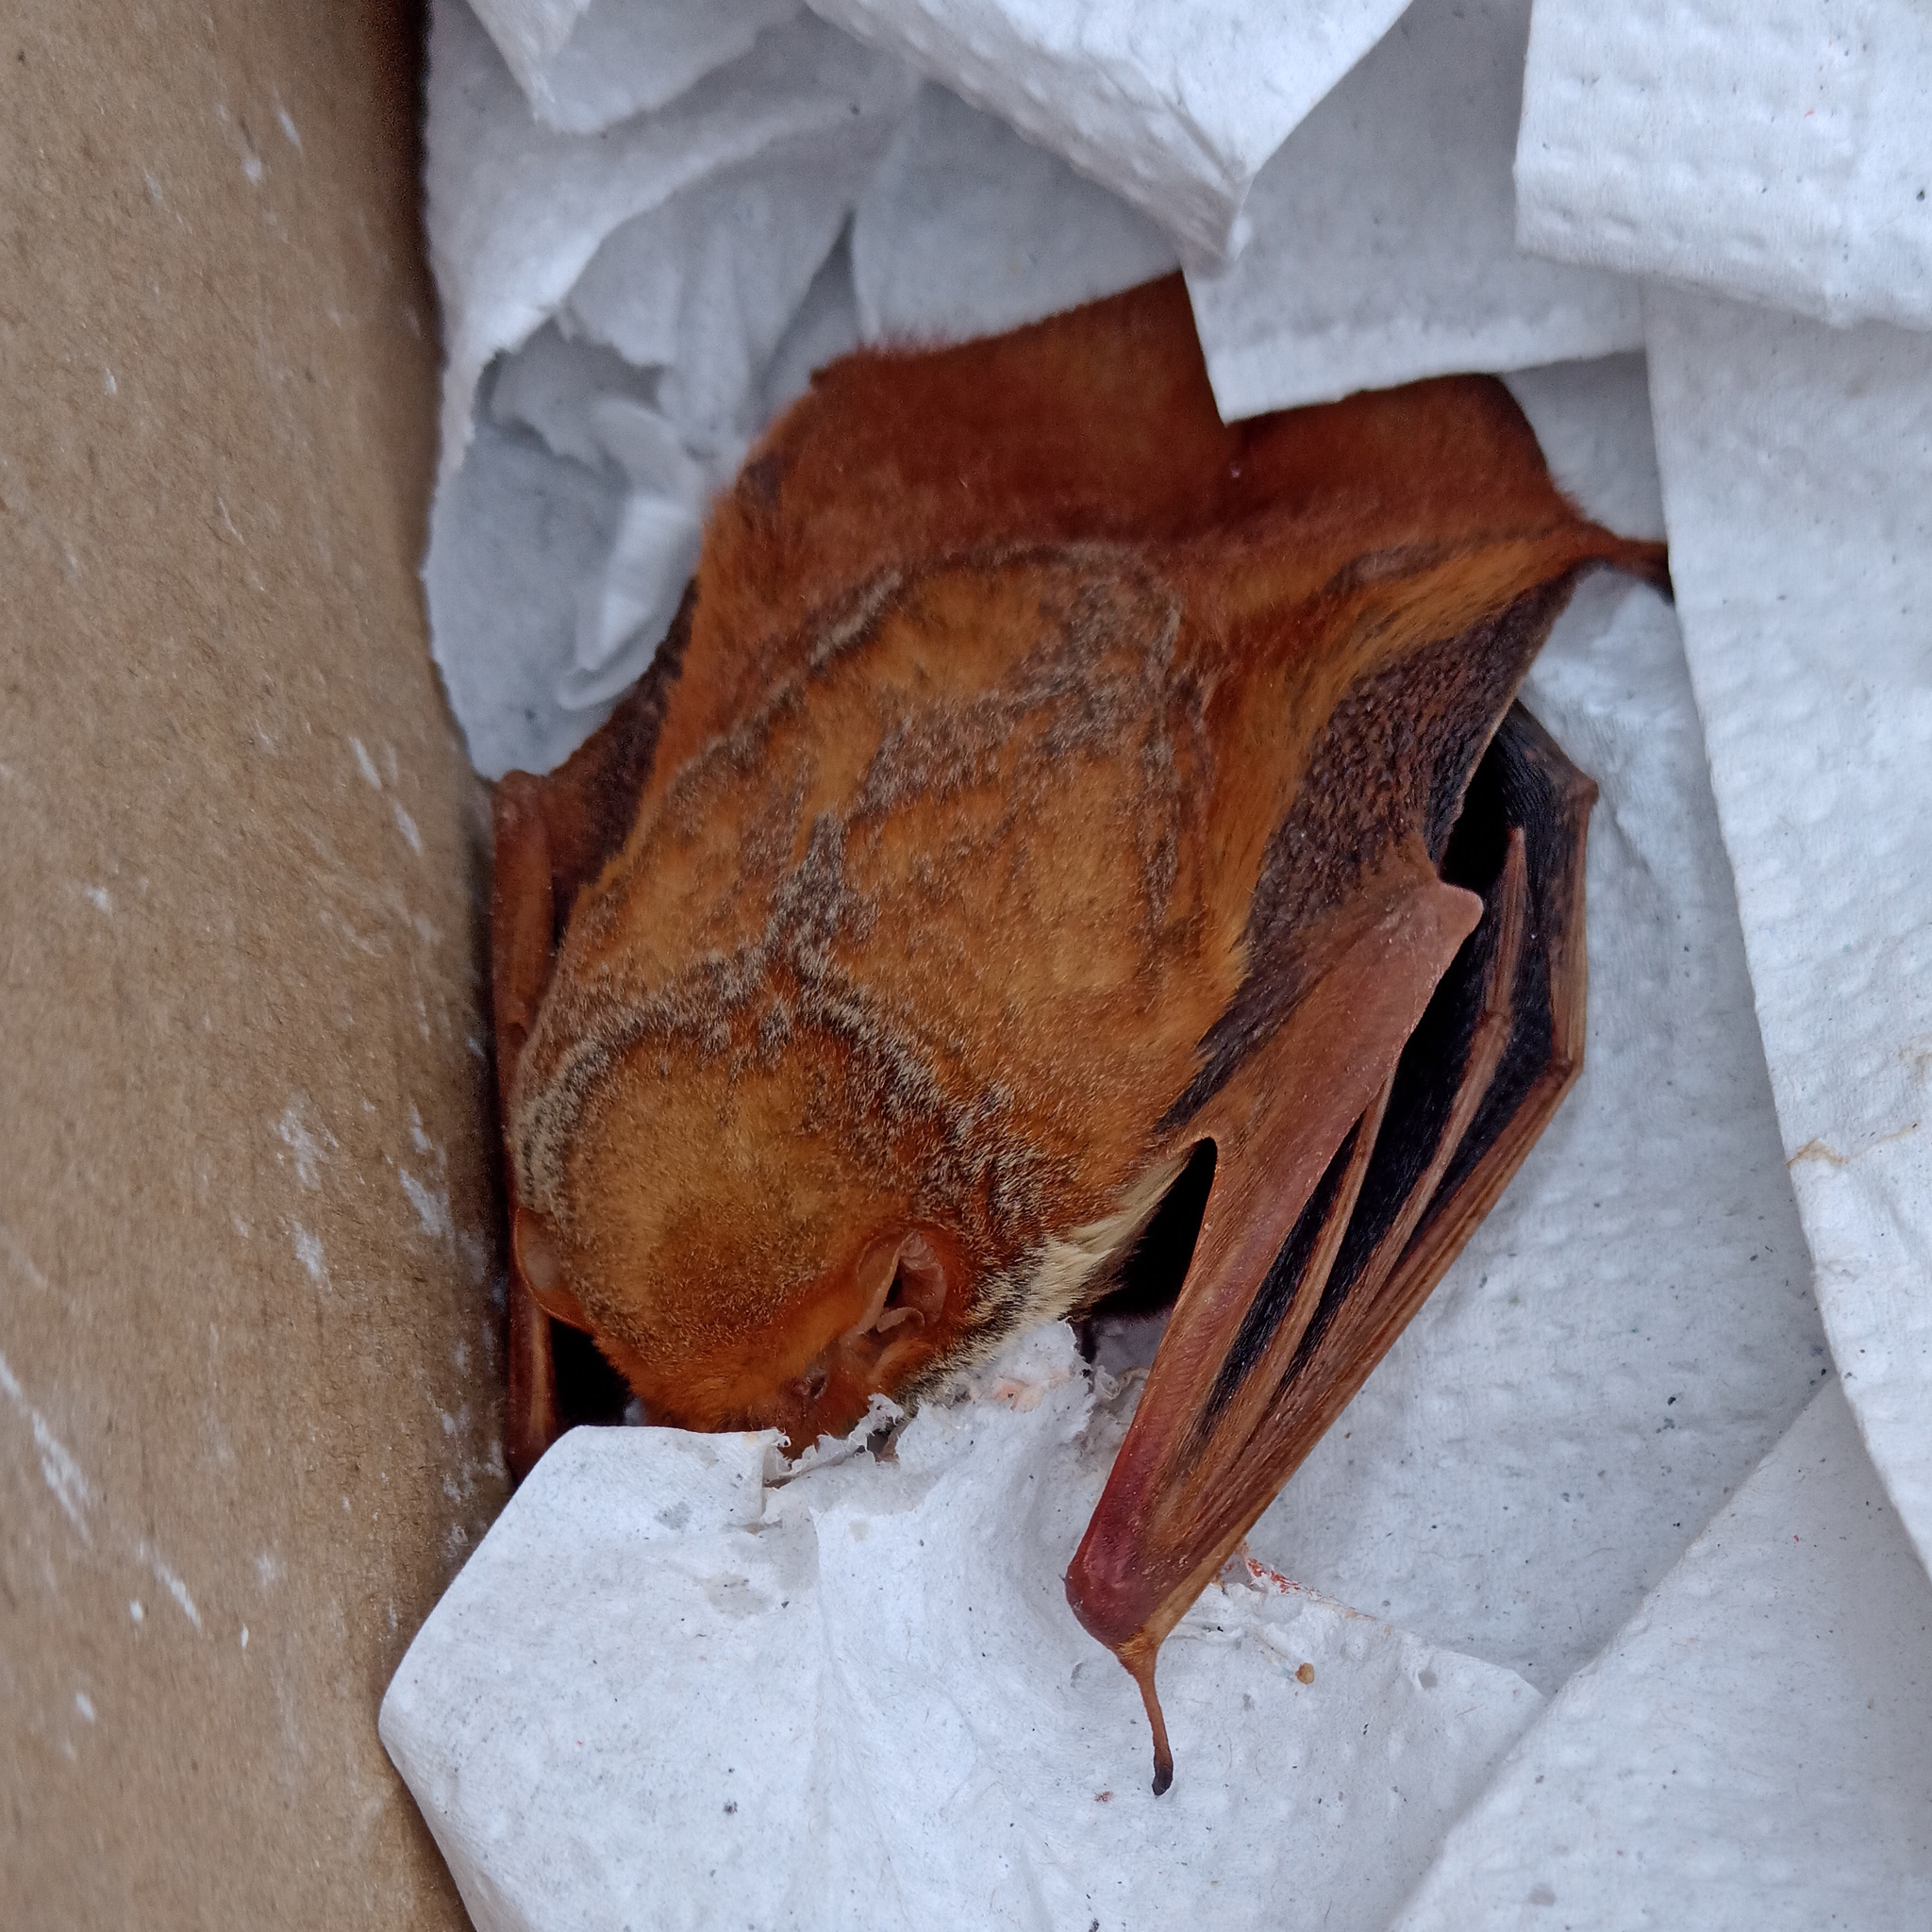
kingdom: Animalia
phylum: Chordata
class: Mammalia
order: Chiroptera
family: Vespertilionidae
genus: Lasiurus
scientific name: Lasiurus blossevillii
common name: Southern red bat
